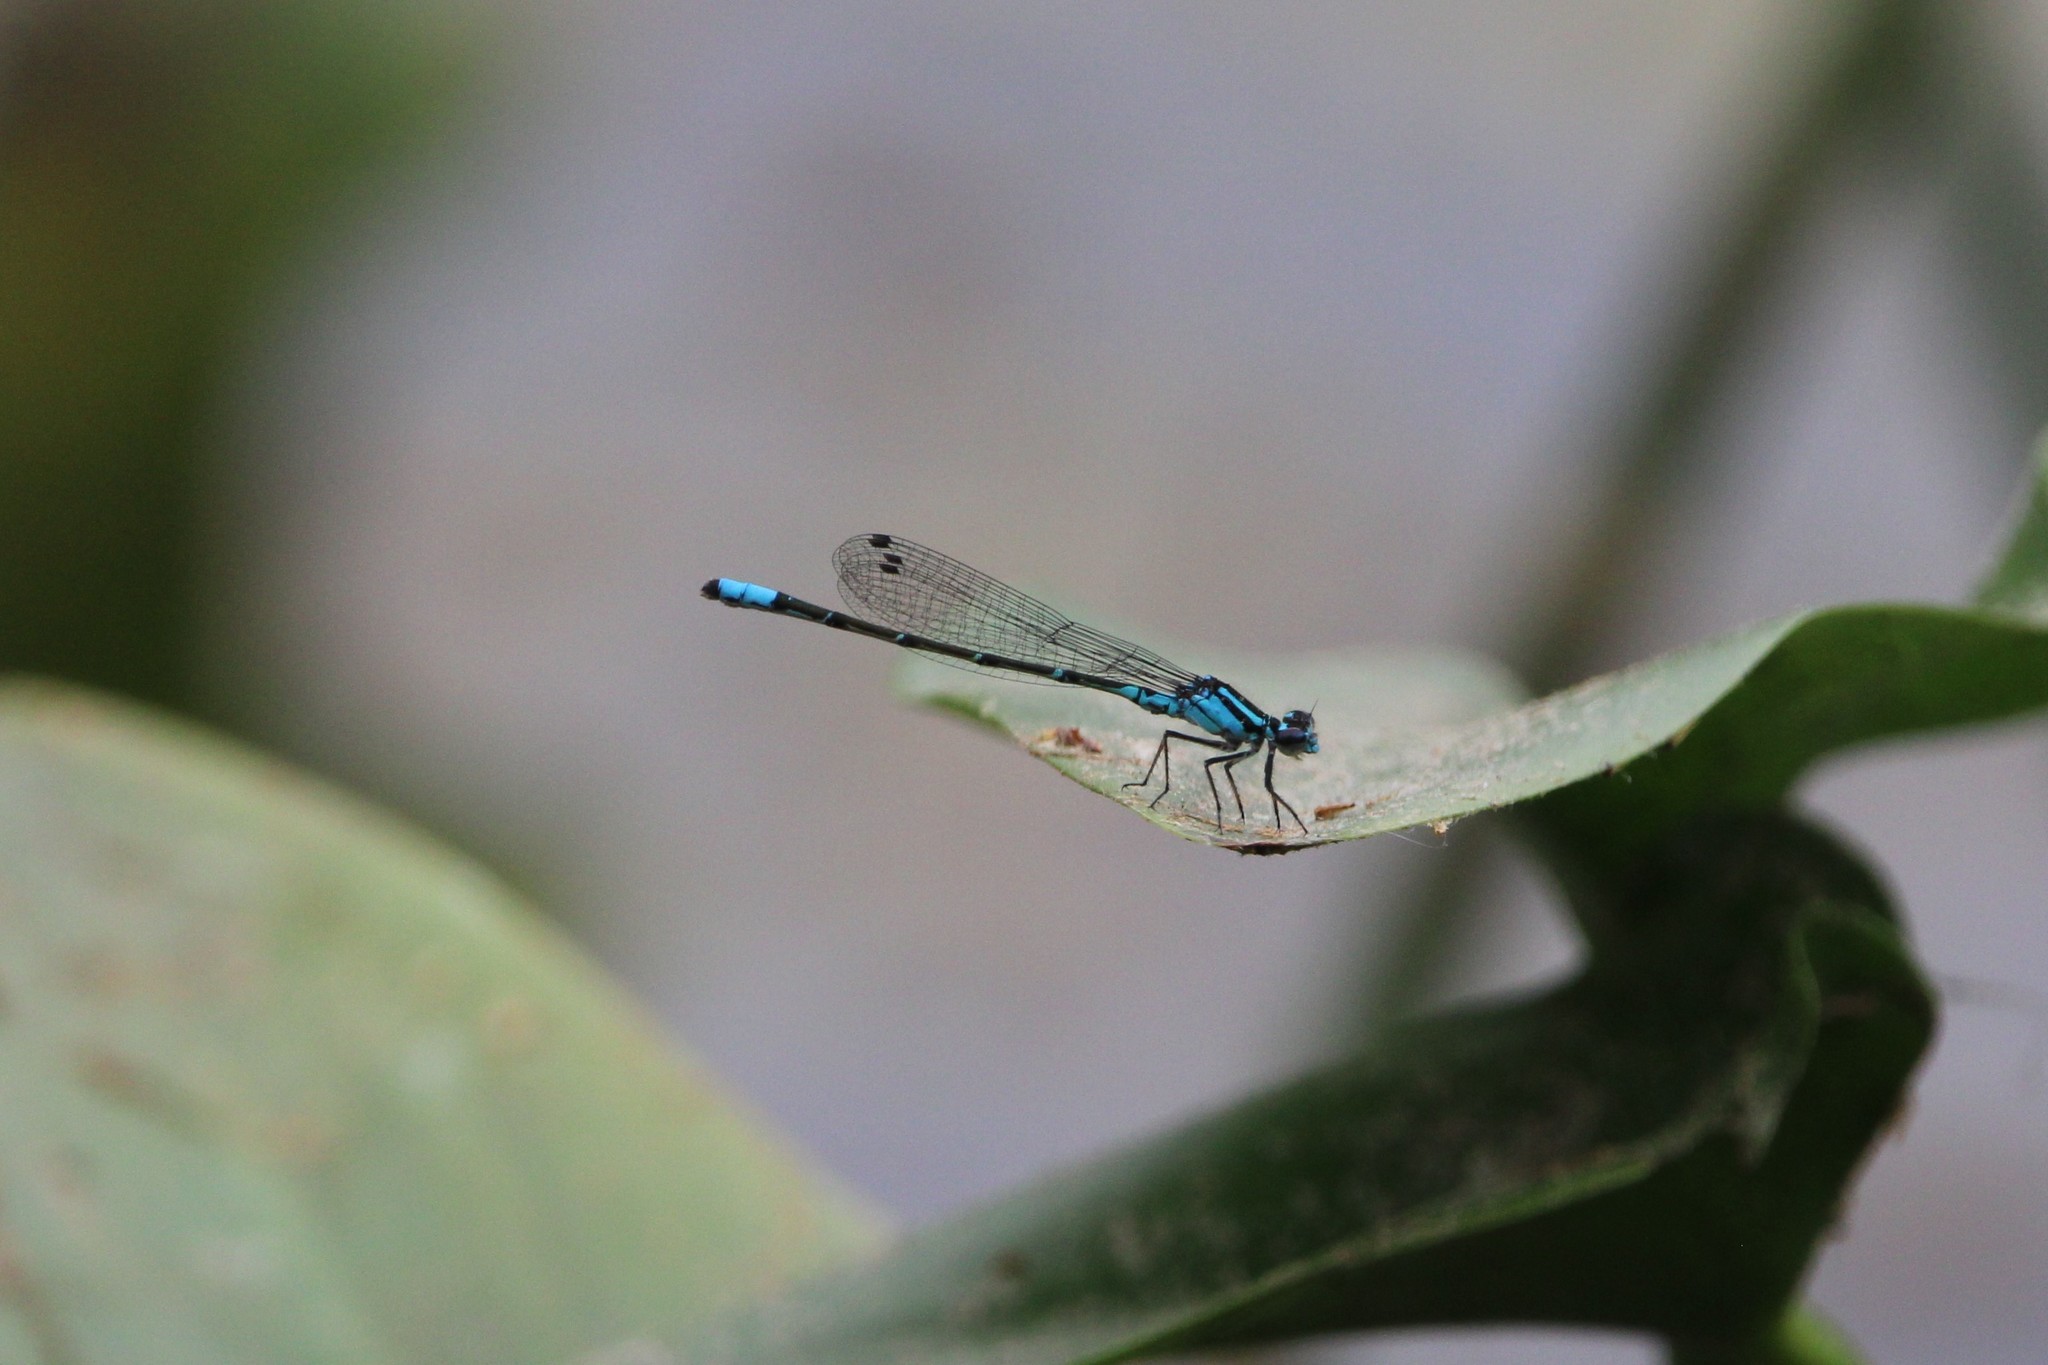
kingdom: Animalia
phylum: Arthropoda
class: Insecta
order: Odonata
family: Coenagrionidae
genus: Enallagma
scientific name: Enallagma geminatum
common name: Skimming bluet
